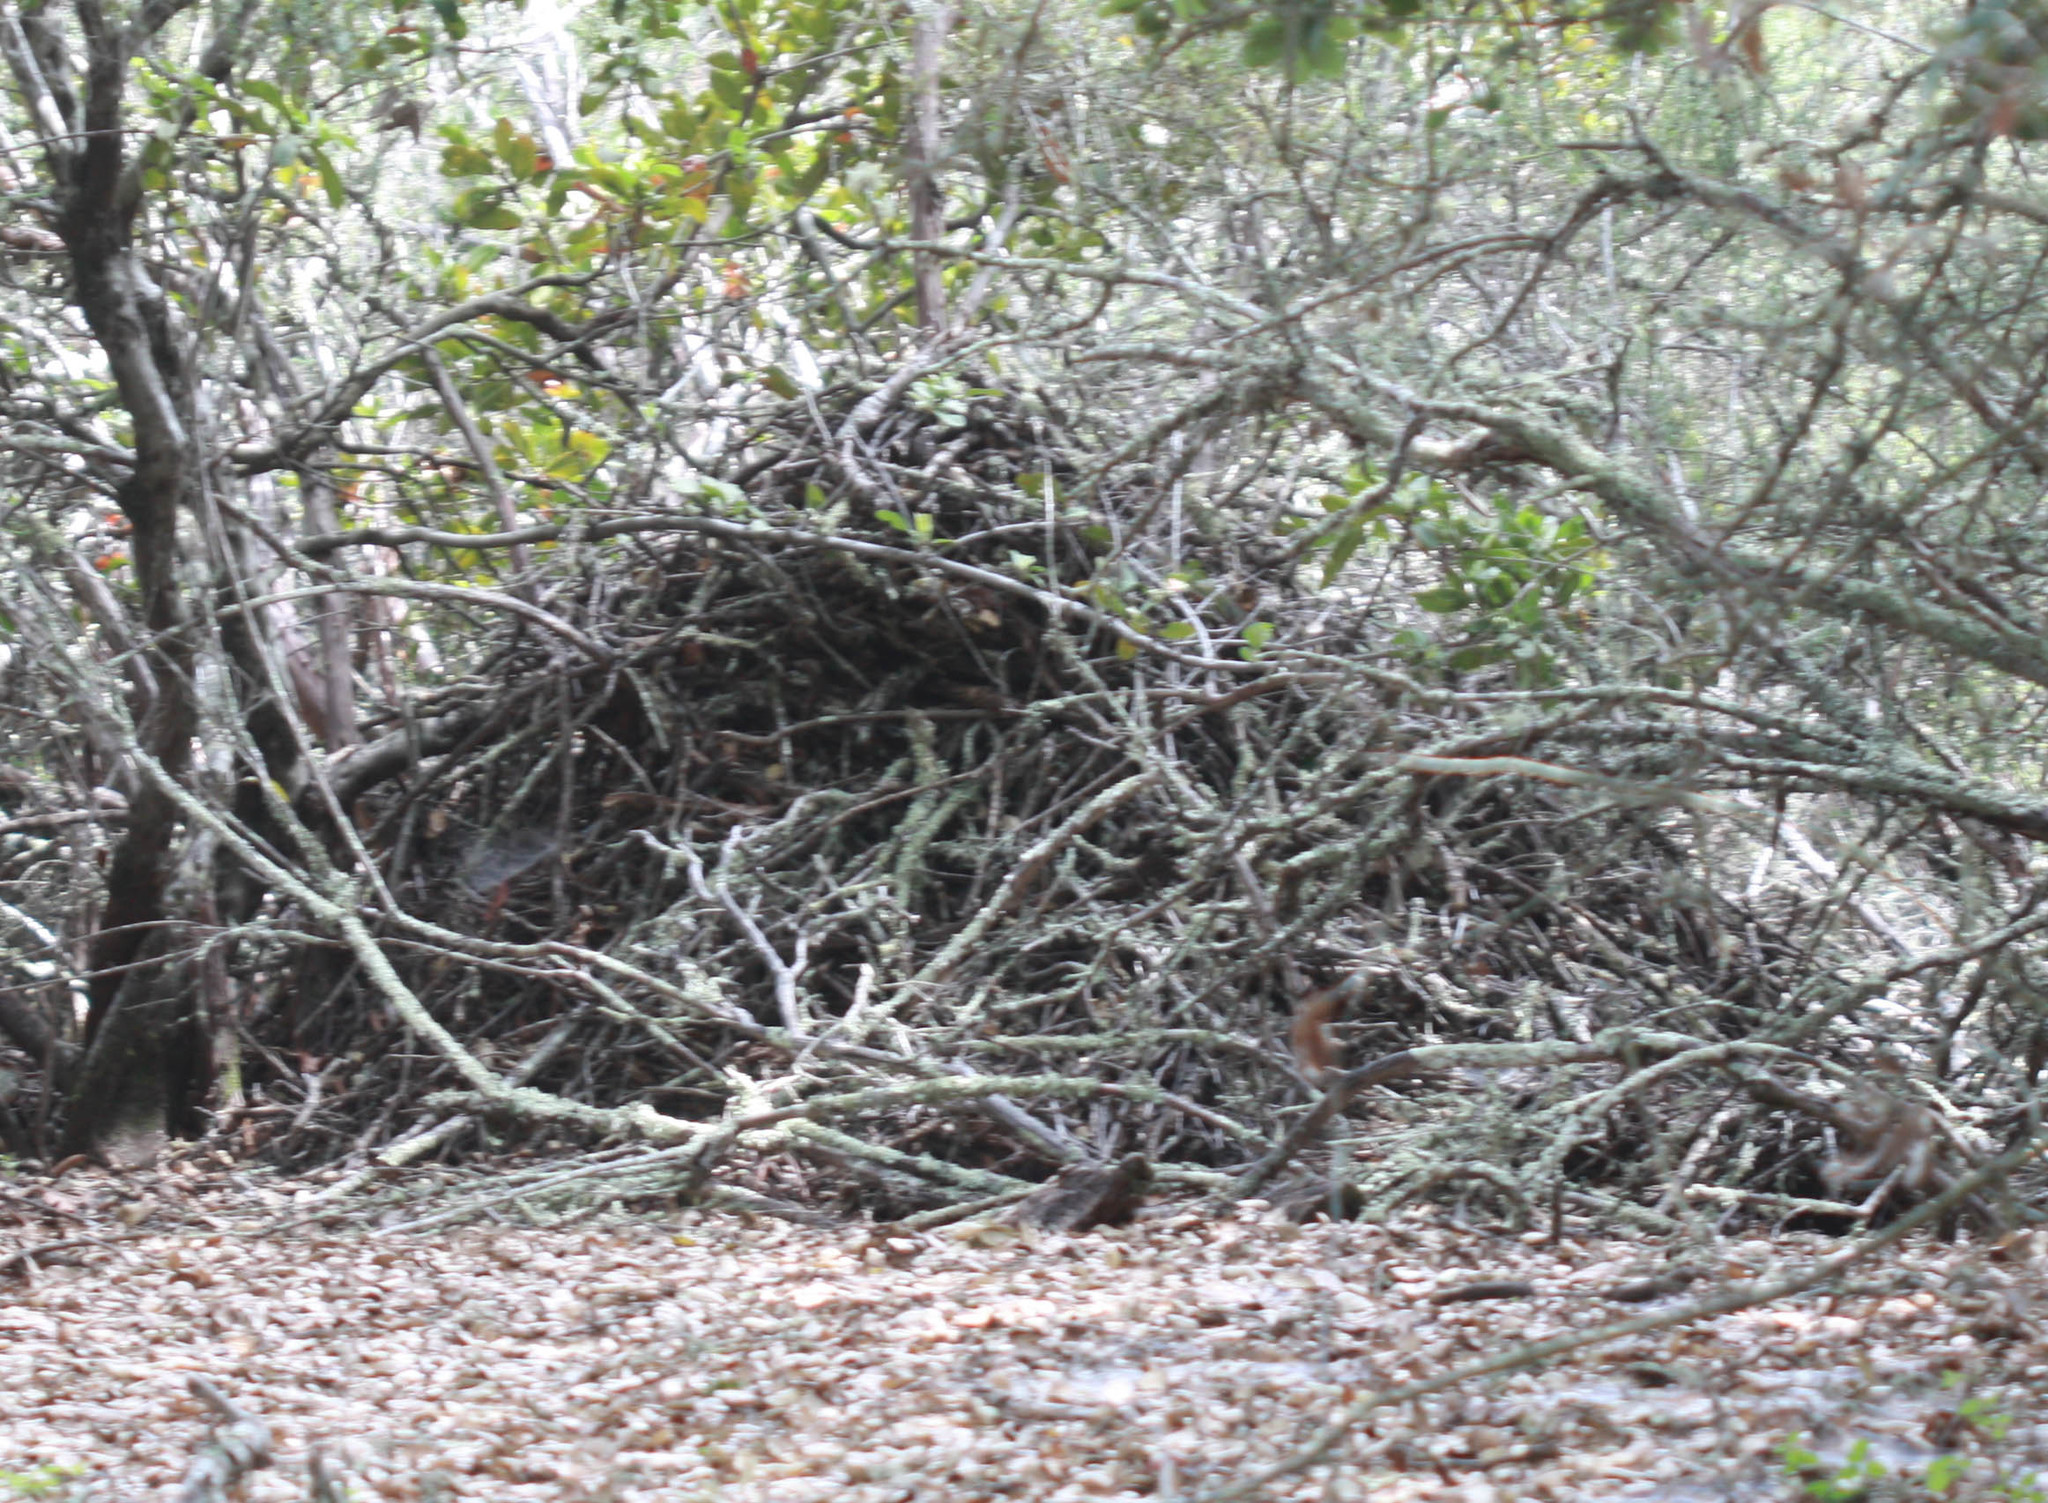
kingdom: Animalia
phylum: Chordata
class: Mammalia
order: Rodentia
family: Cricetidae
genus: Neotoma
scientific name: Neotoma fuscipes
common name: Dusky-footed woodrat
